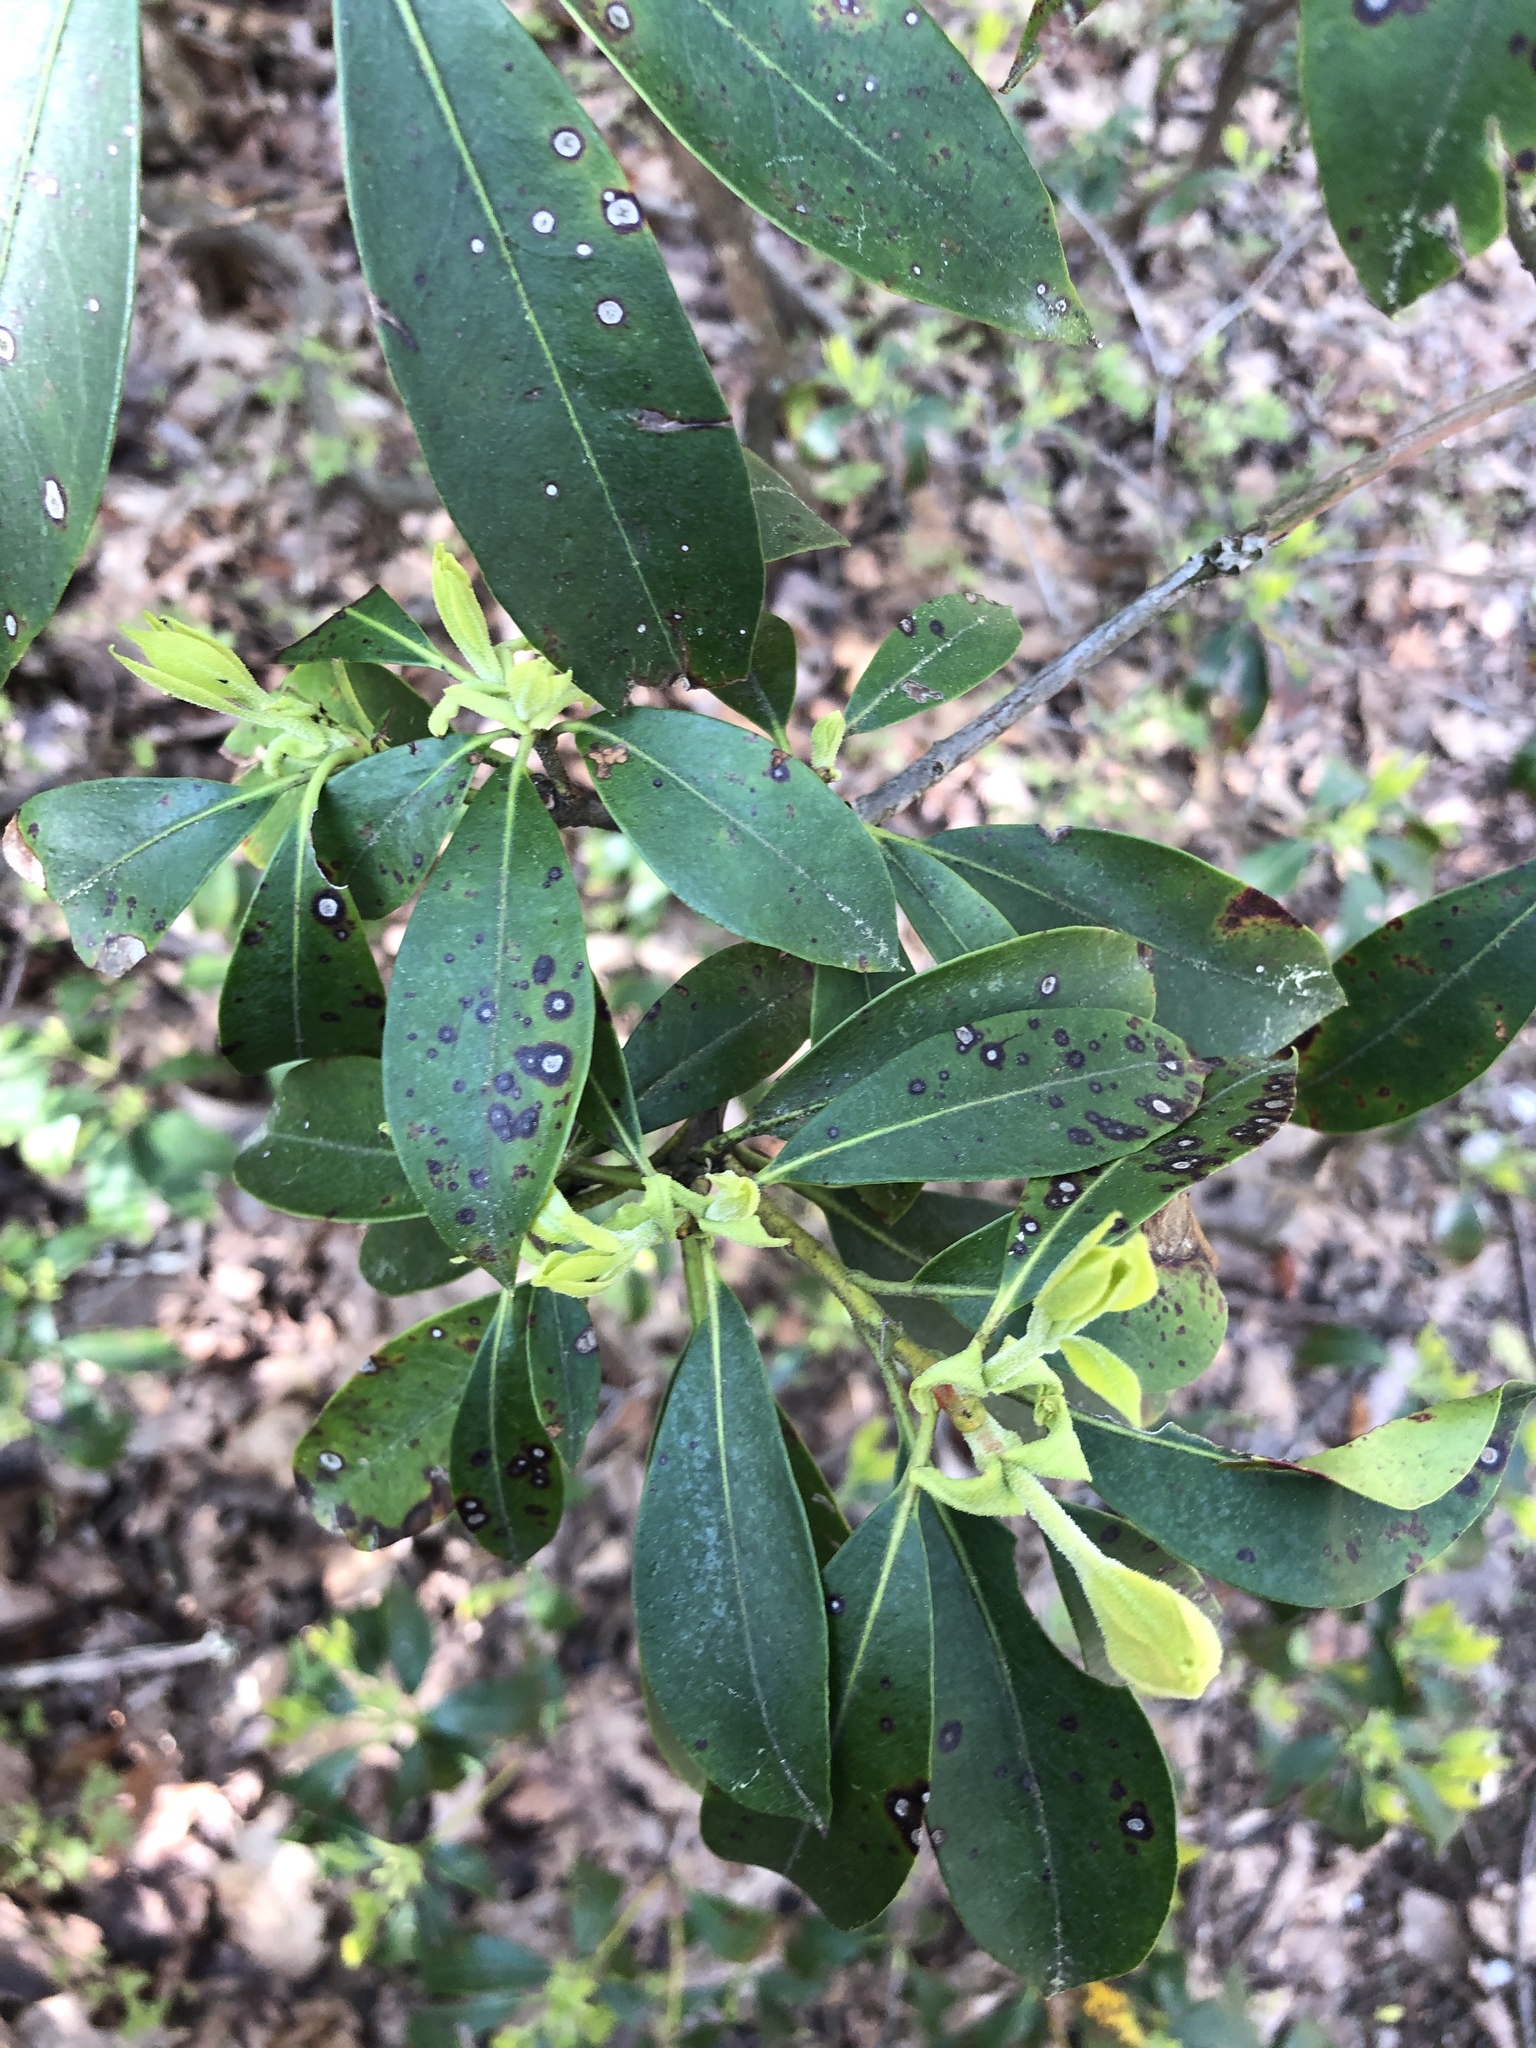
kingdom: Plantae
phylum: Tracheophyta
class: Magnoliopsida
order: Ericales
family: Ericaceae
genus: Kalmia
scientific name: Kalmia latifolia
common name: Mountain-laurel
